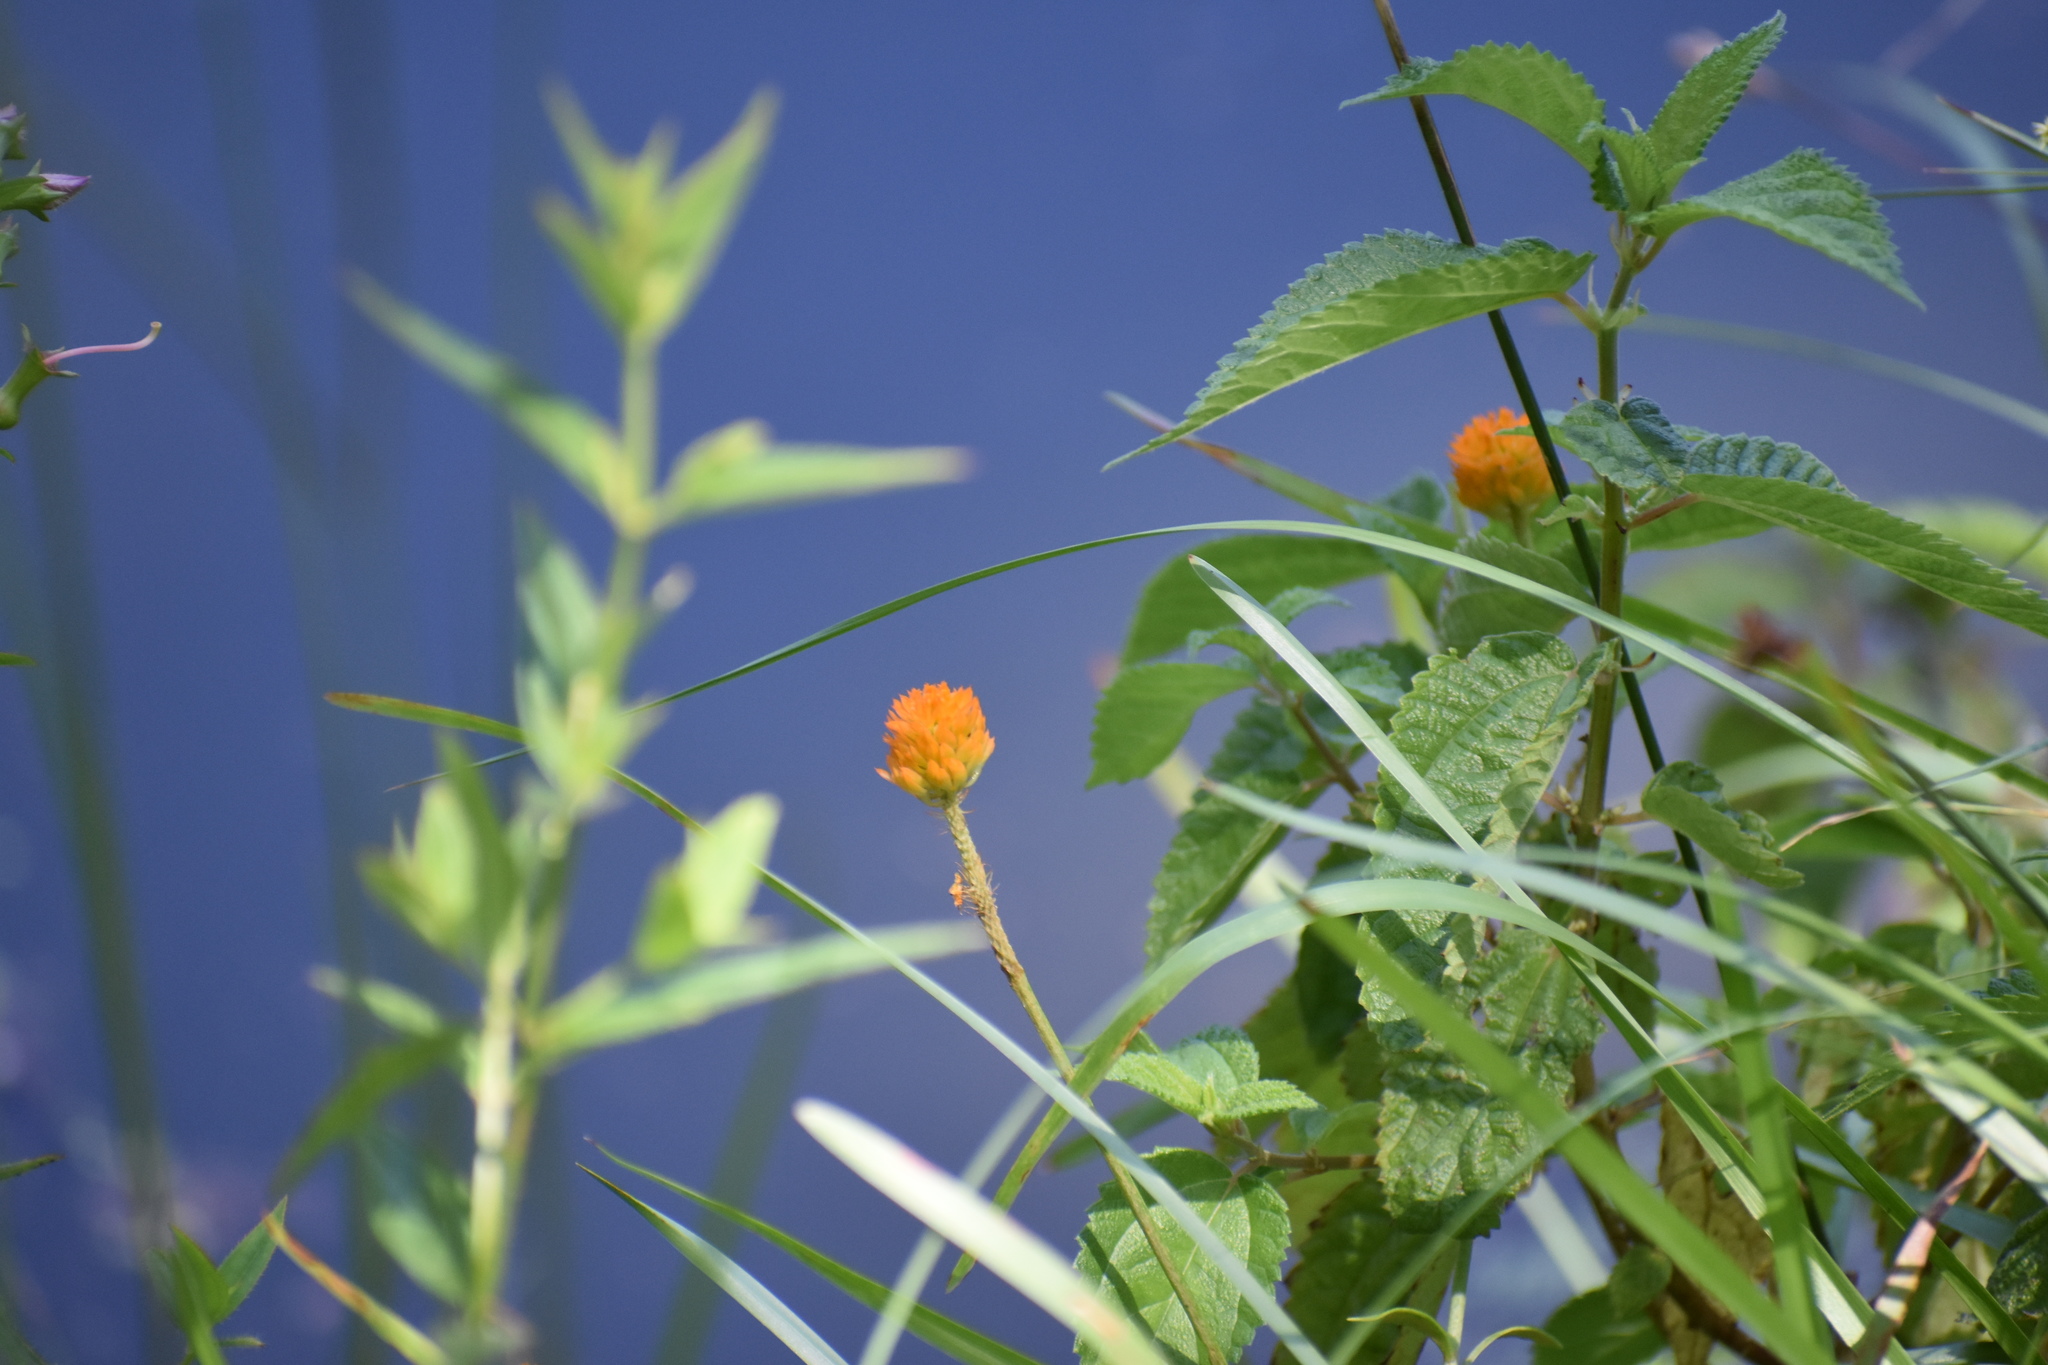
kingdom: Plantae
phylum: Tracheophyta
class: Magnoliopsida
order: Fabales
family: Polygalaceae
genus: Polygala
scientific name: Polygala lutea
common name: Orange milkwort
